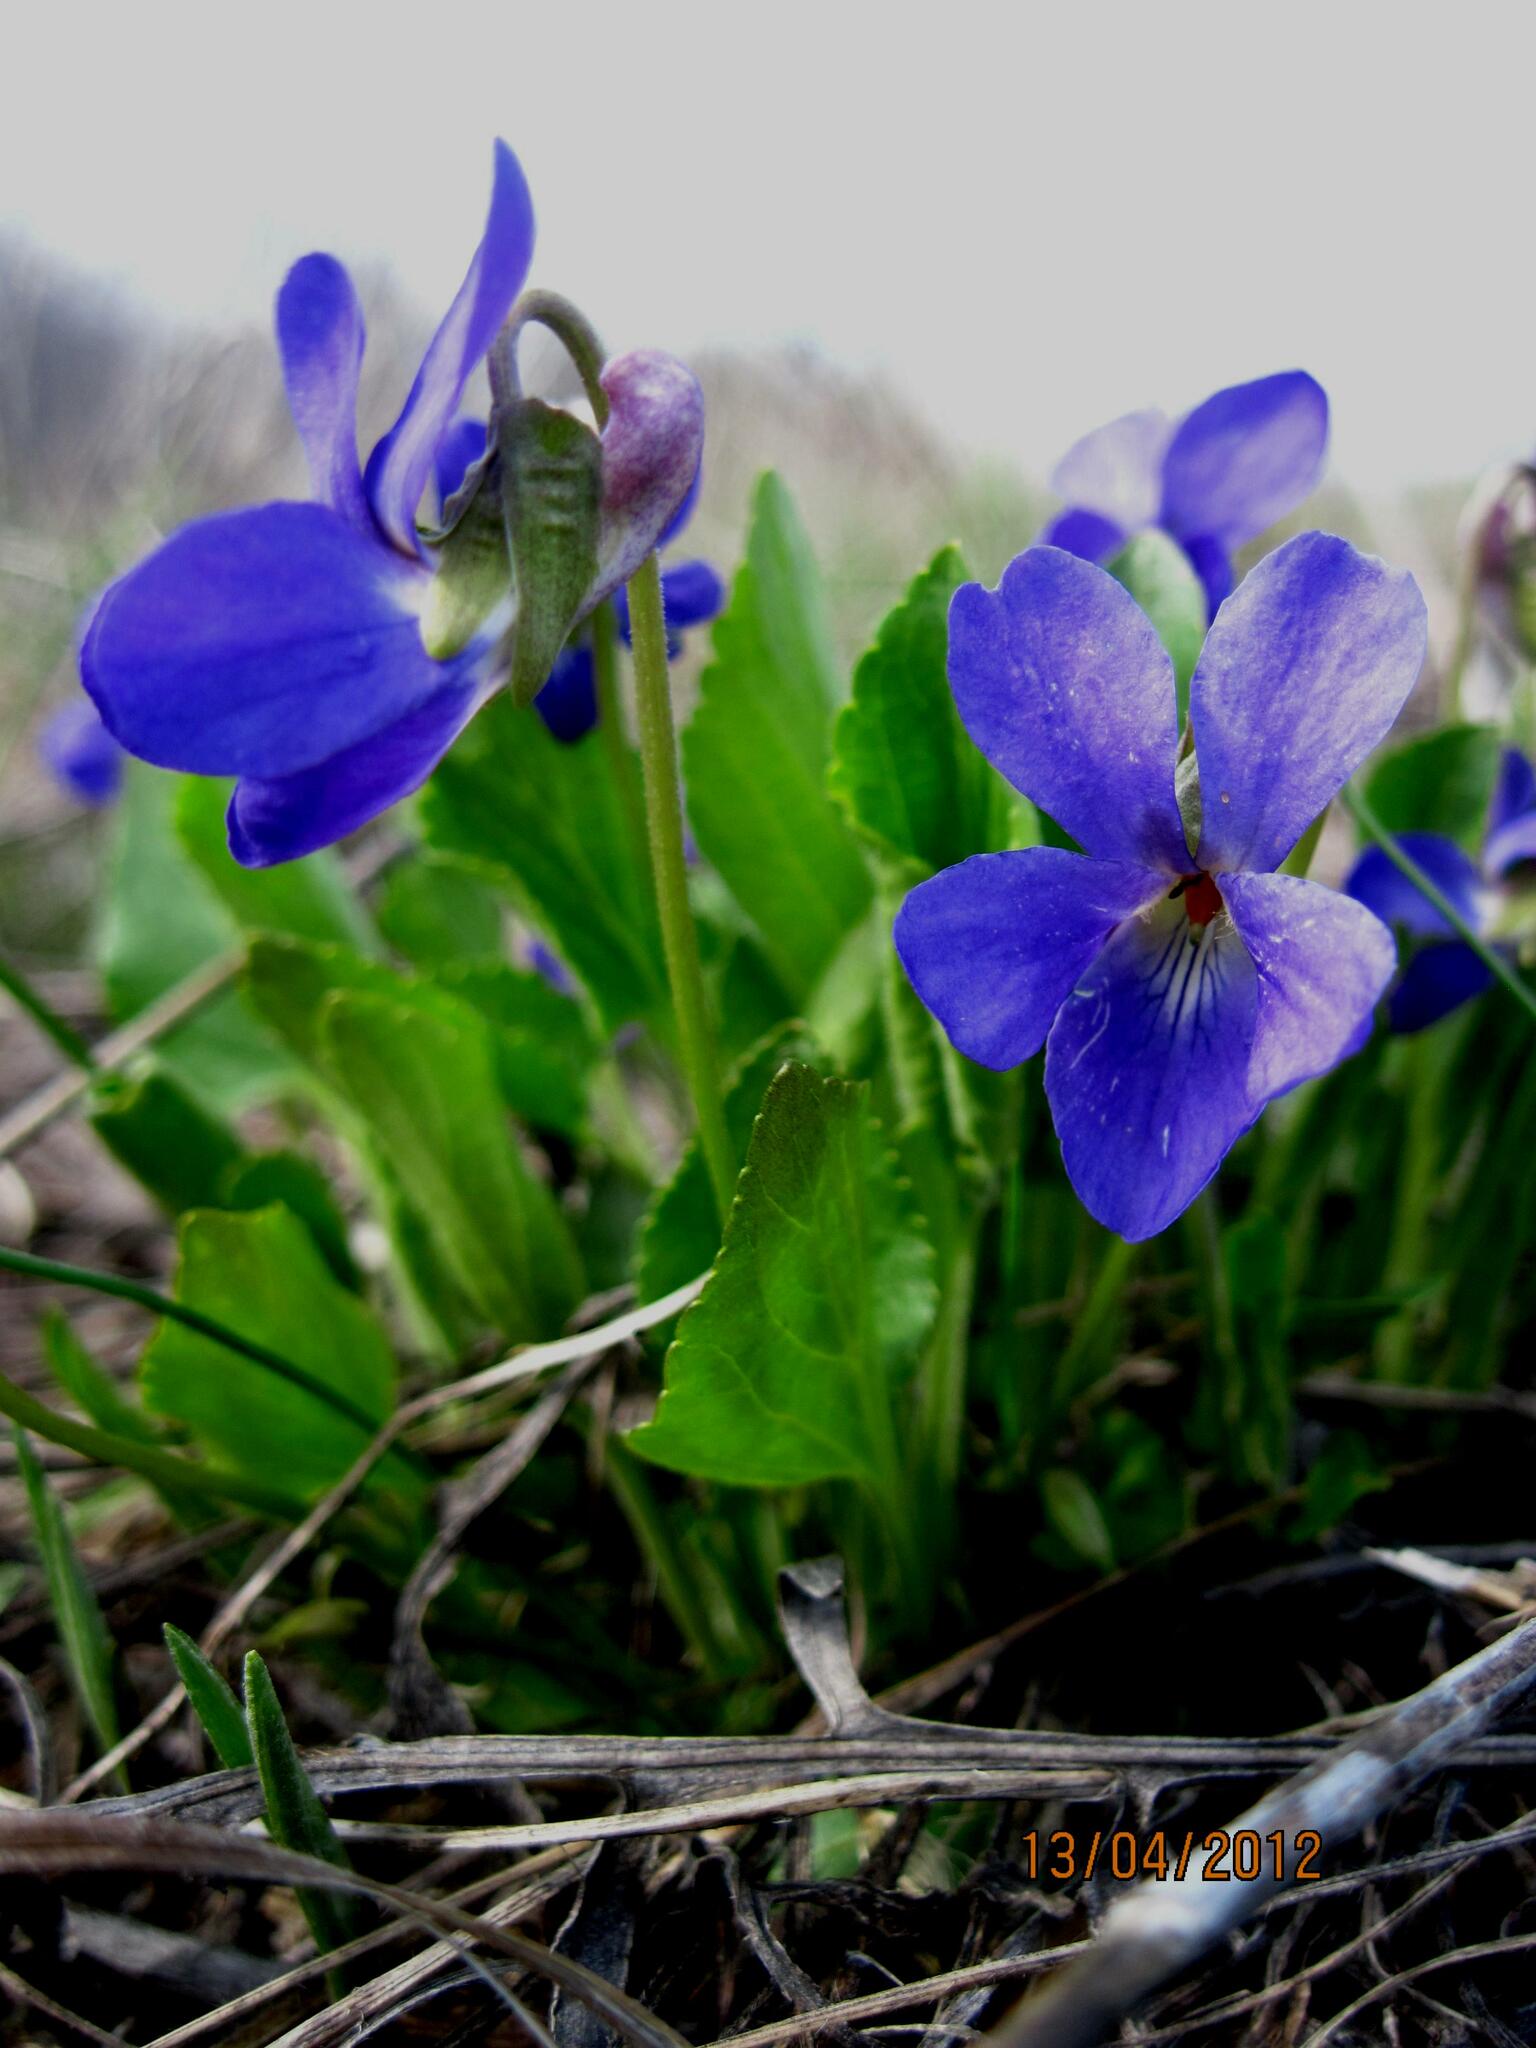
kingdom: Plantae
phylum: Tracheophyta
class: Magnoliopsida
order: Malpighiales
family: Violaceae
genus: Viola
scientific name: Viola ambigua
